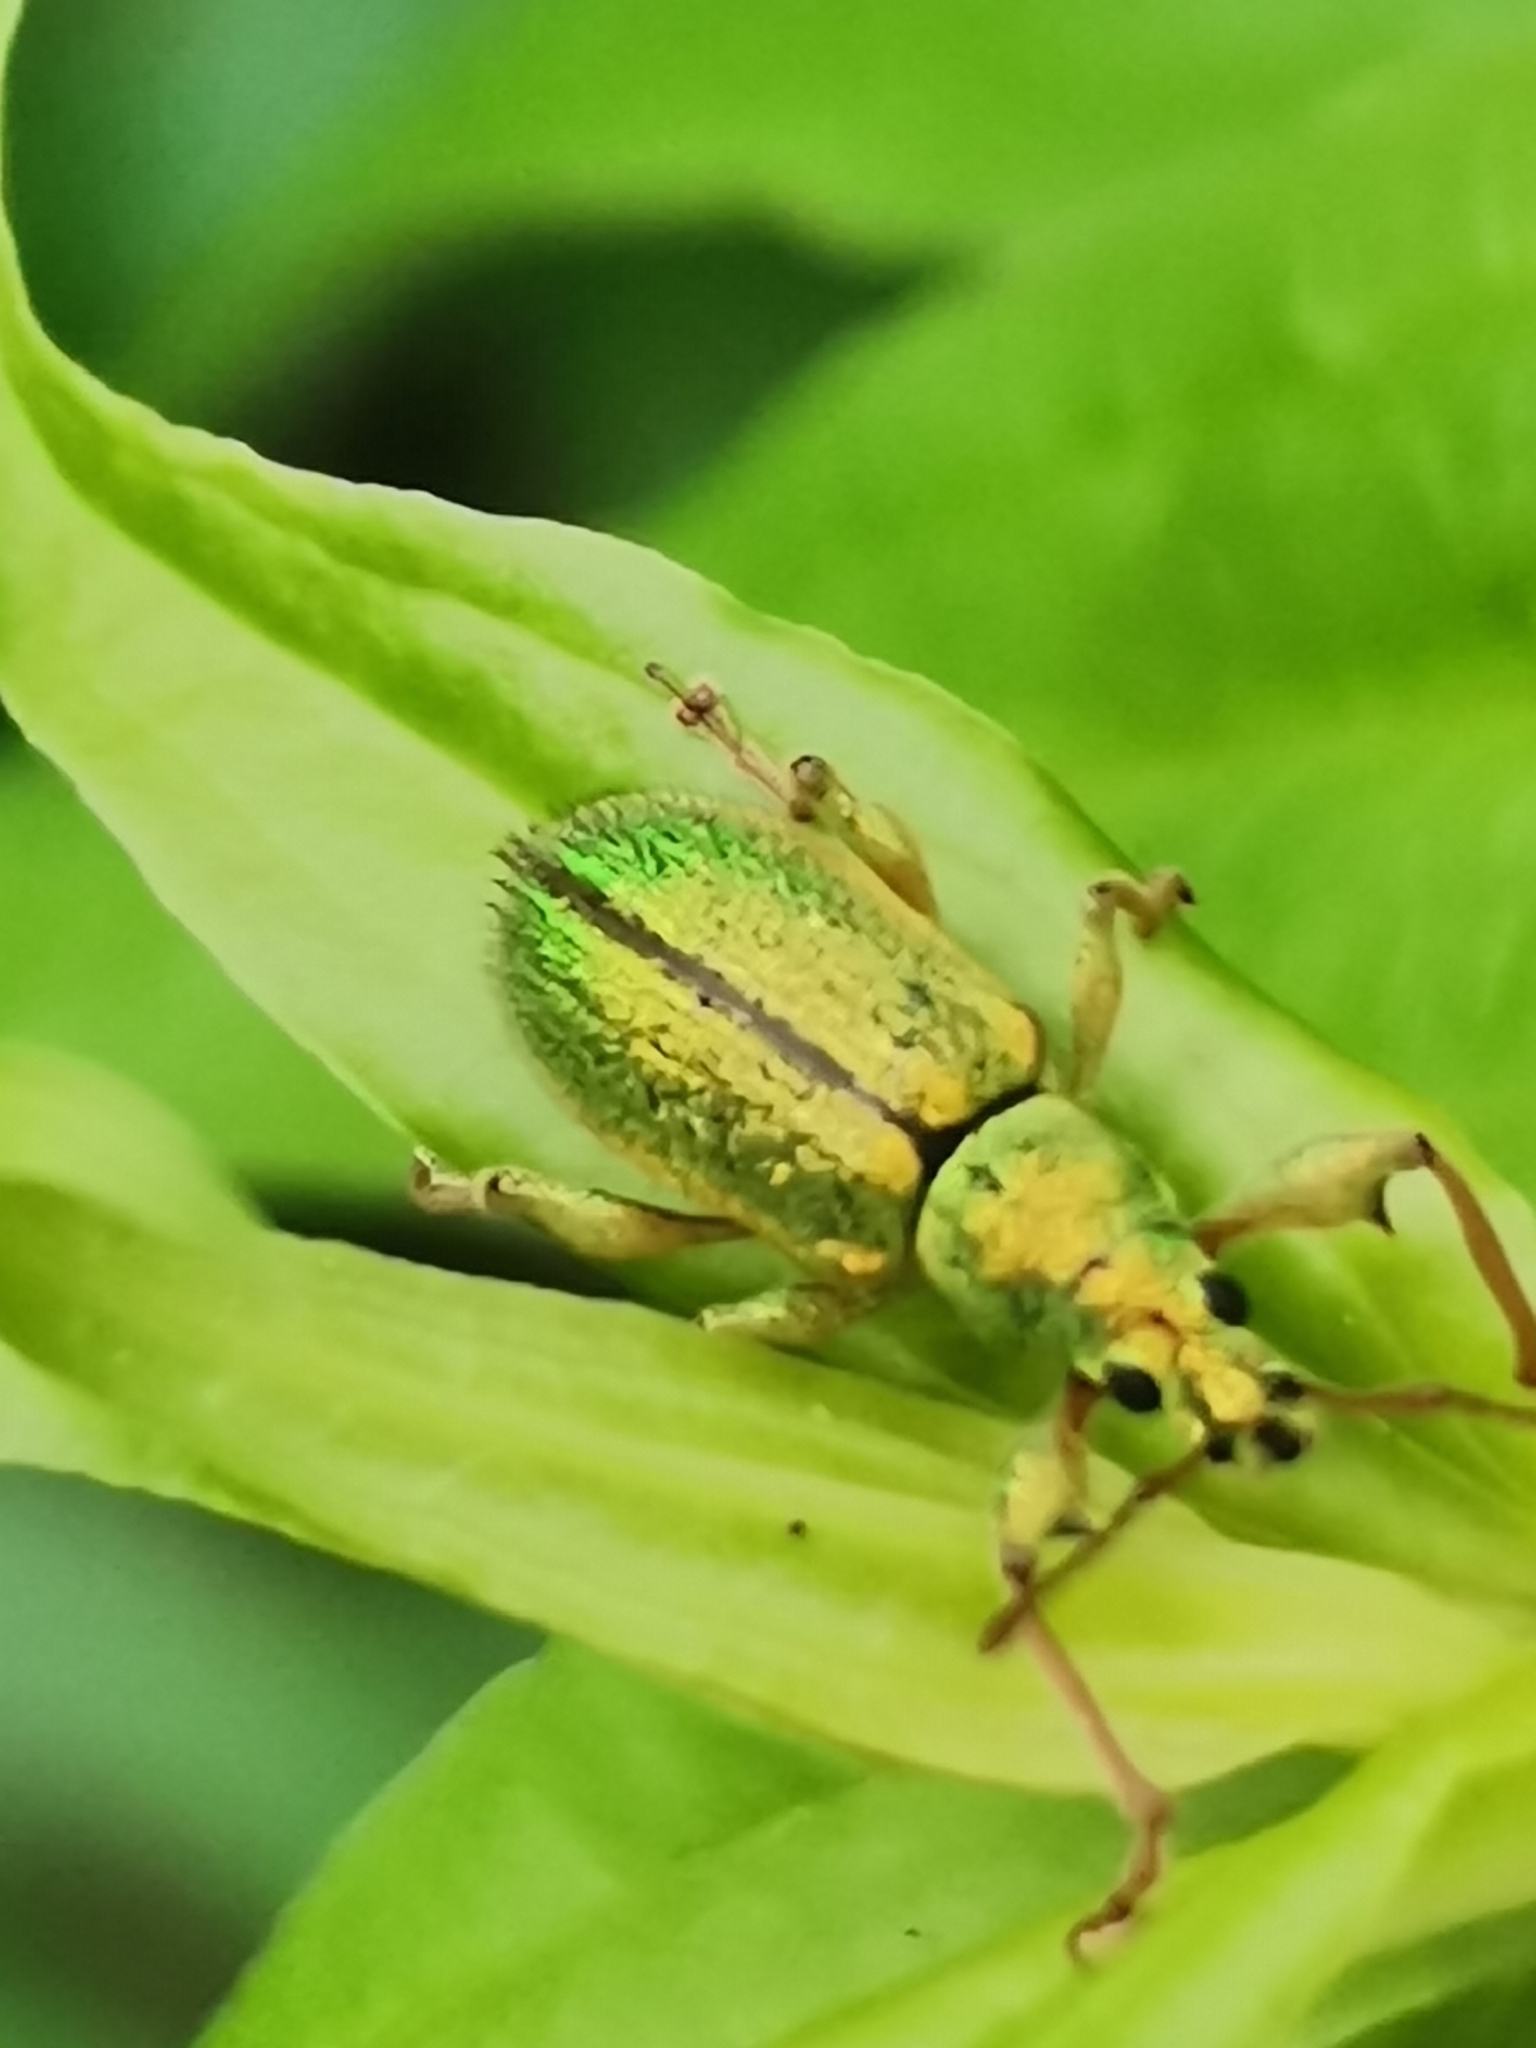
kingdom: Animalia
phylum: Arthropoda
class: Insecta
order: Coleoptera
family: Curculionidae
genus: Phyllobius
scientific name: Phyllobius arborator
